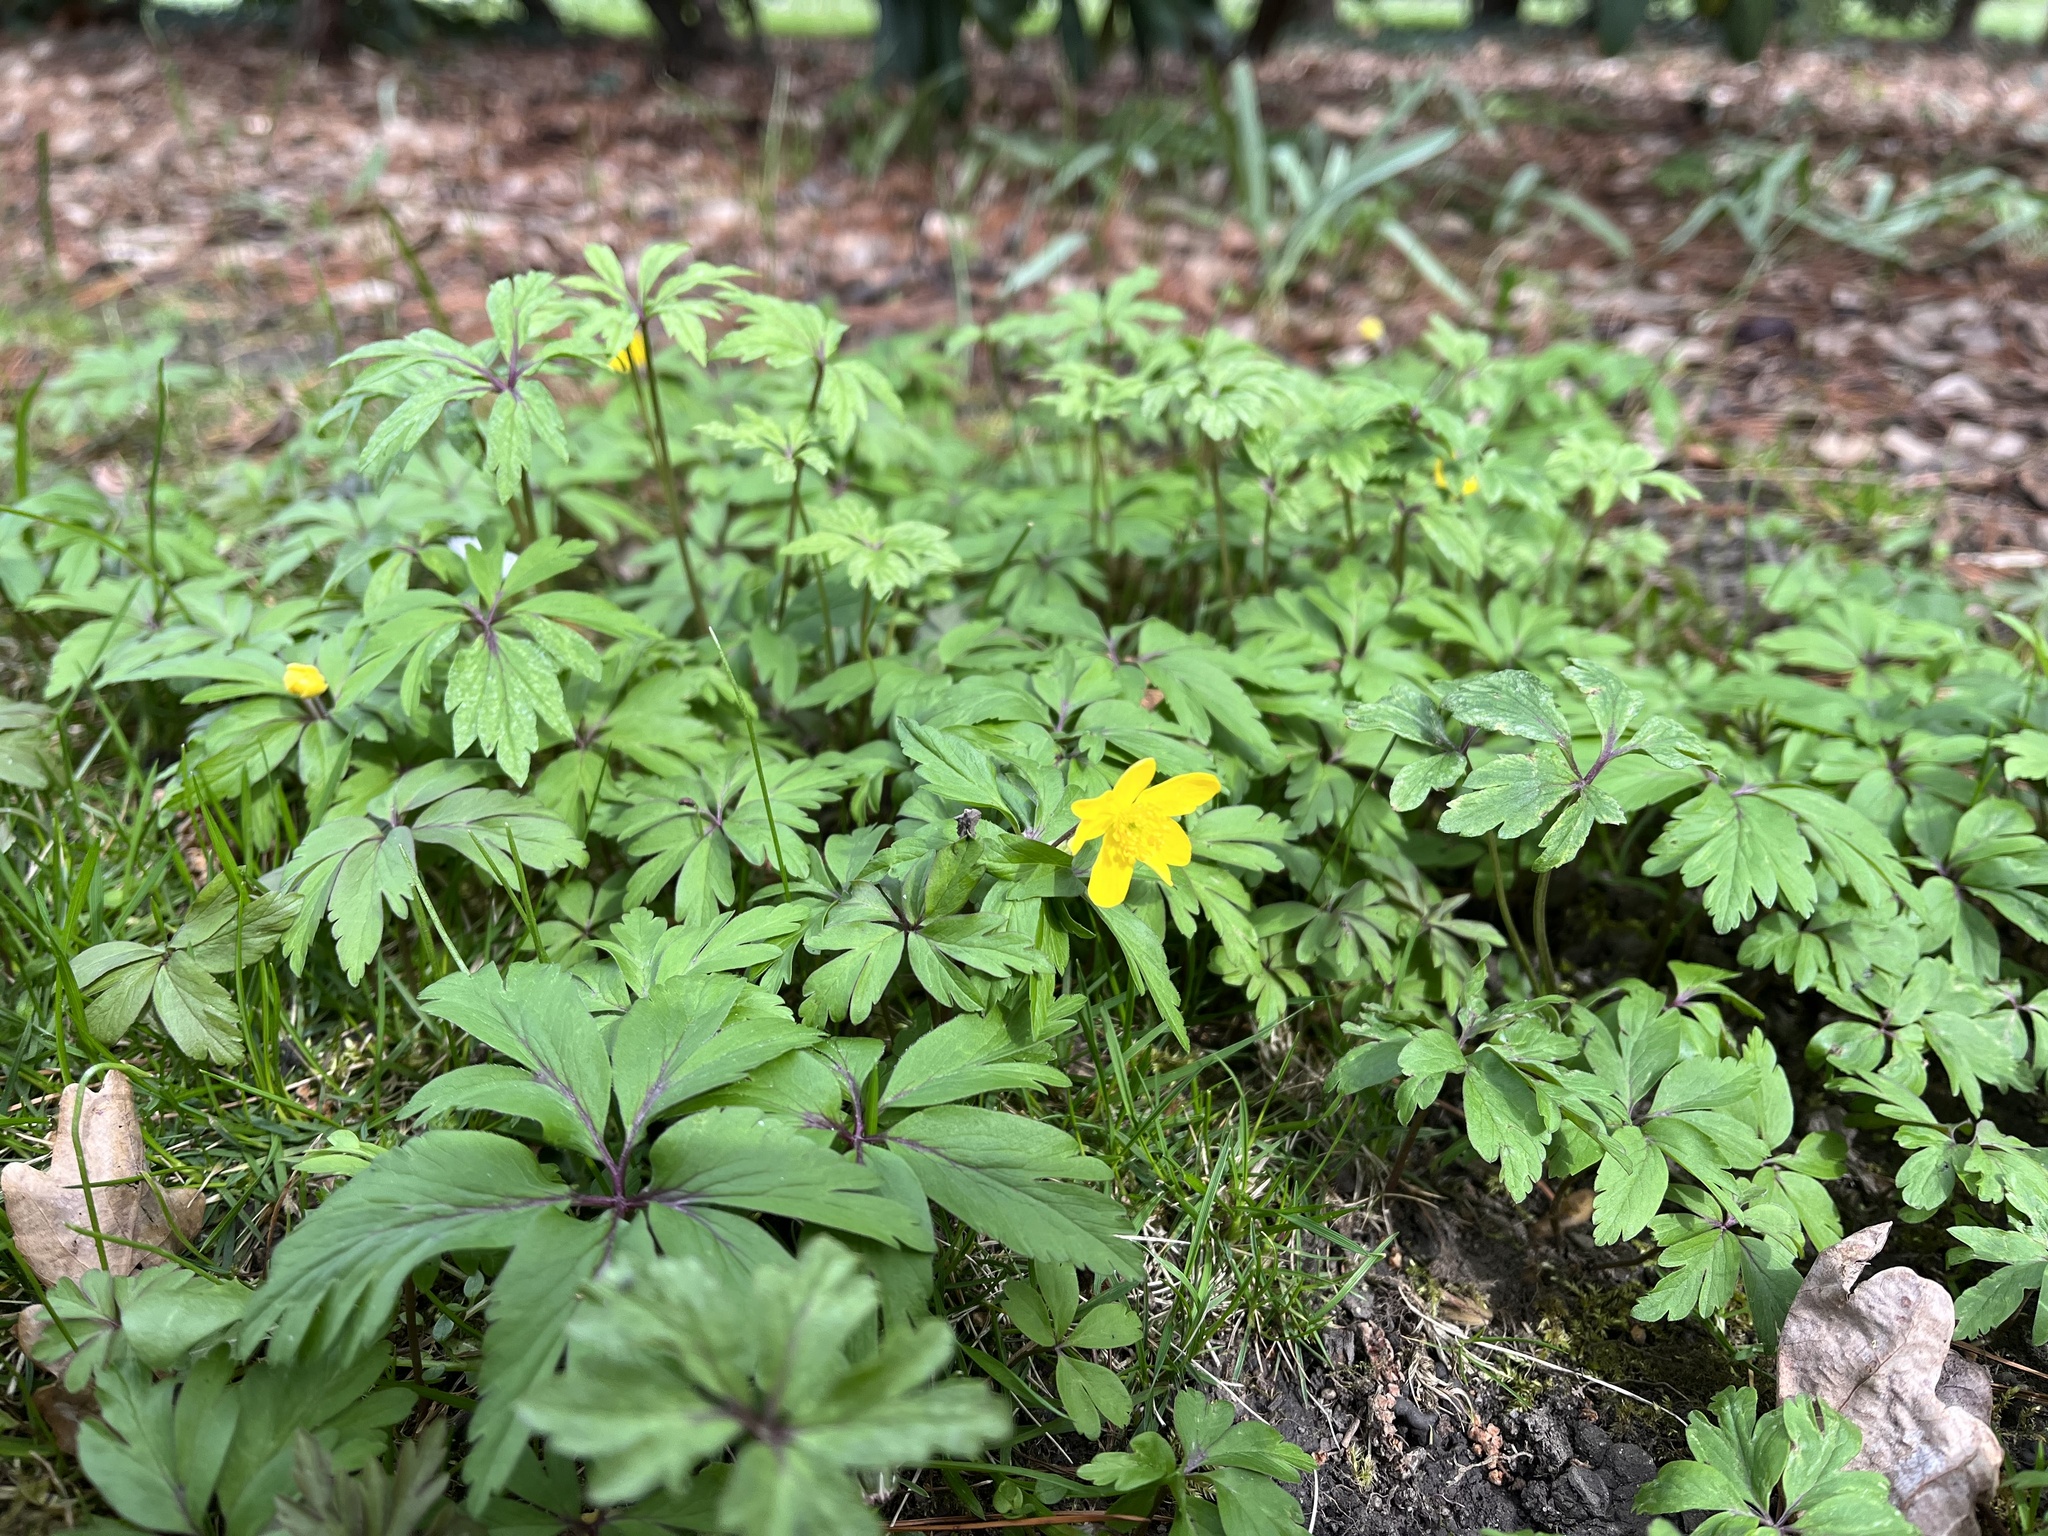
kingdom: Plantae
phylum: Tracheophyta
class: Magnoliopsida
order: Ranunculales
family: Ranunculaceae
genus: Anemone
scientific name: Anemone ranunculoides
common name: Yellow anemone
